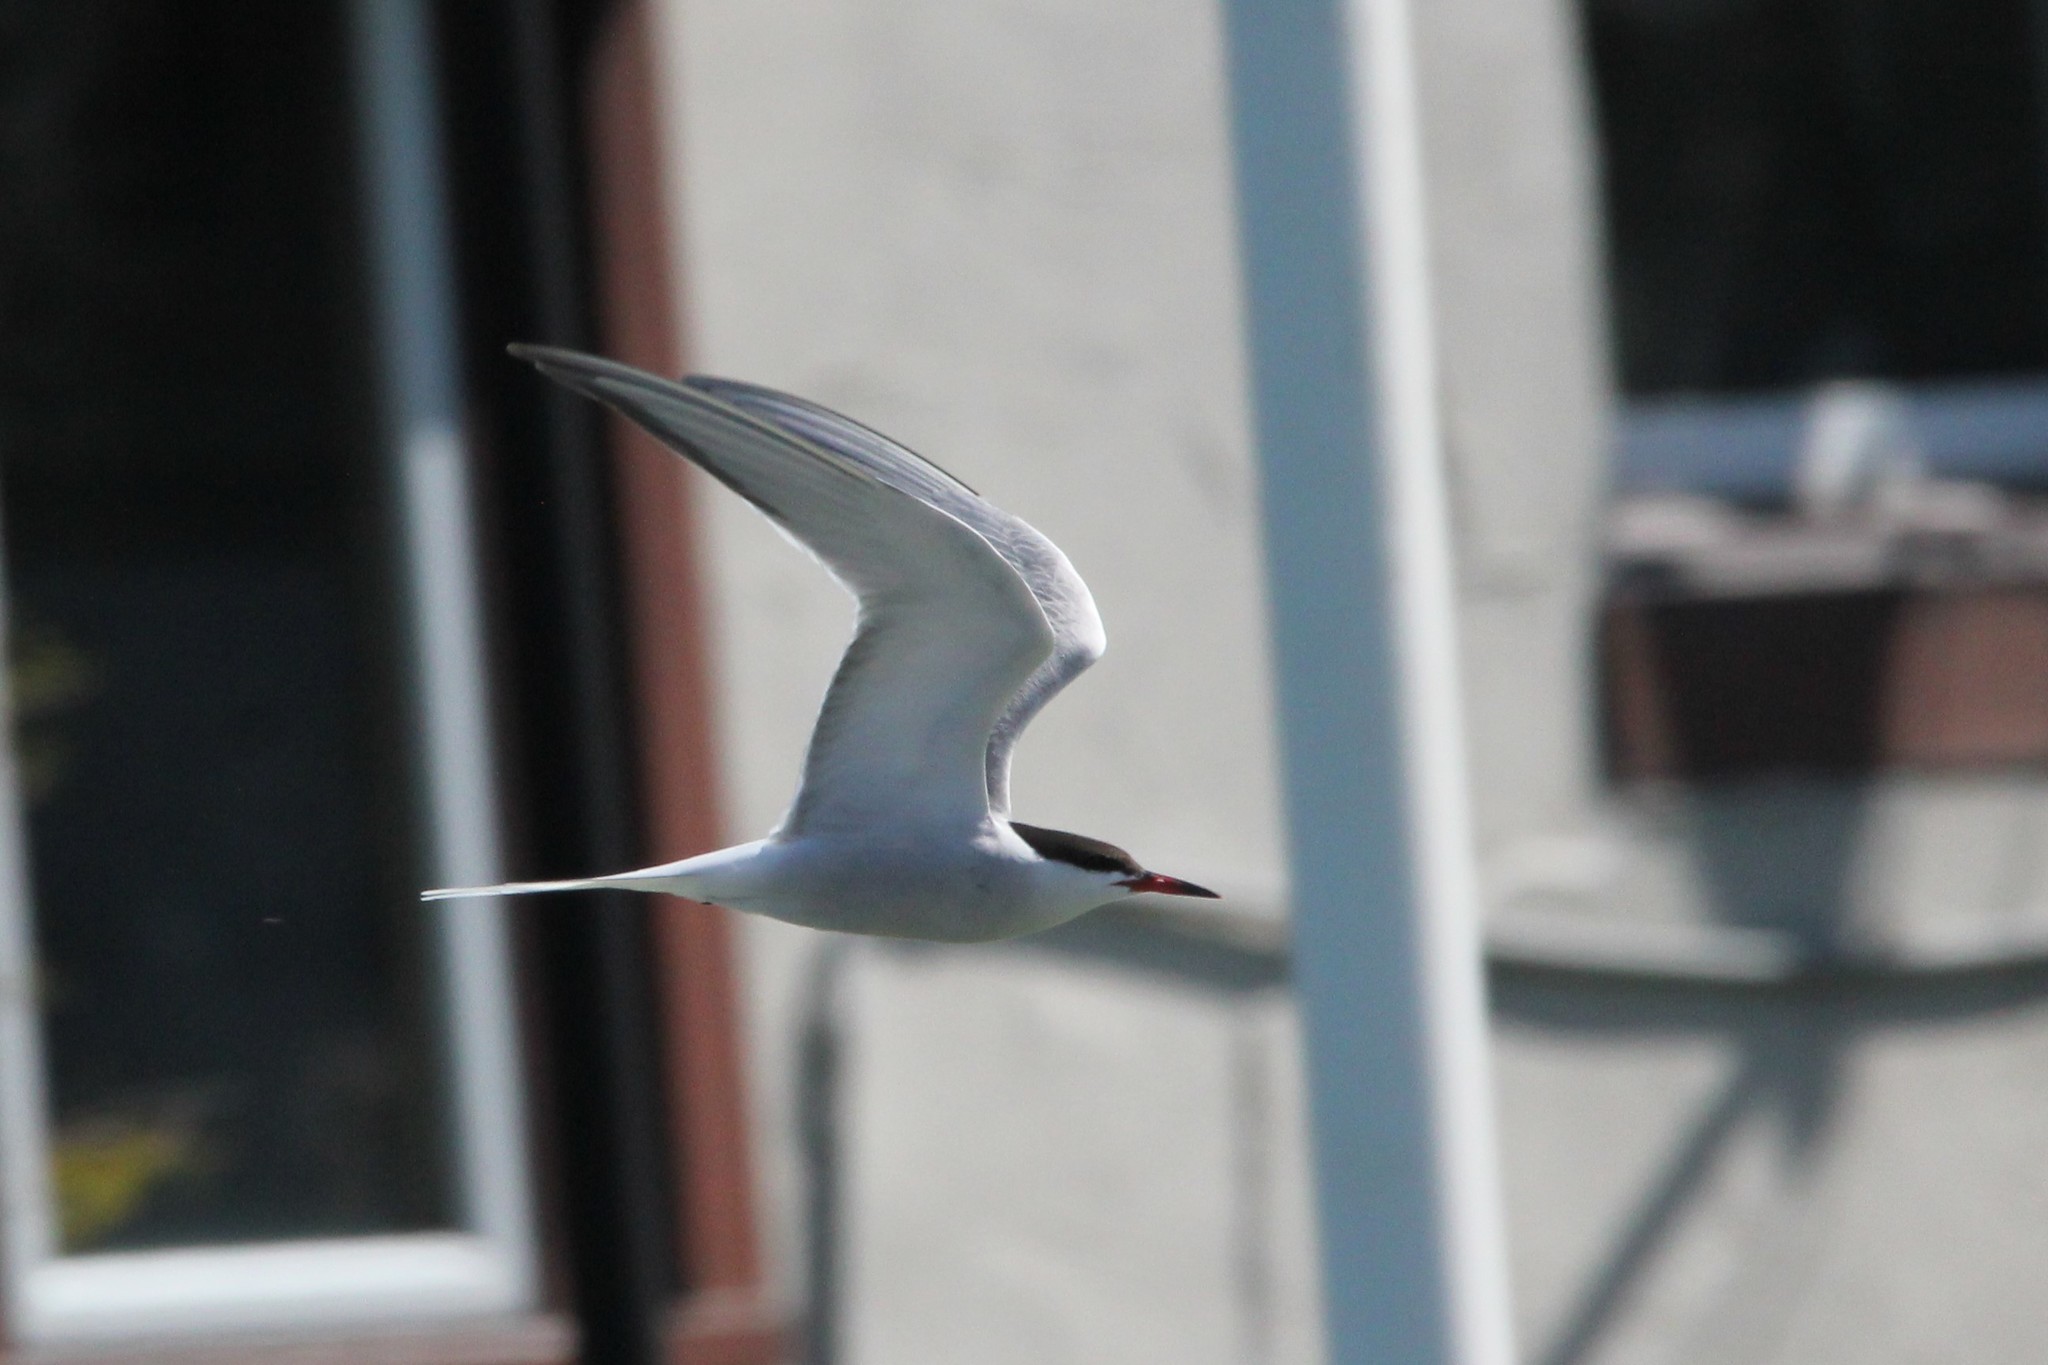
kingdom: Animalia
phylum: Chordata
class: Aves
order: Charadriiformes
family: Laridae
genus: Sterna
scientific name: Sterna hirundo
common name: Common tern
